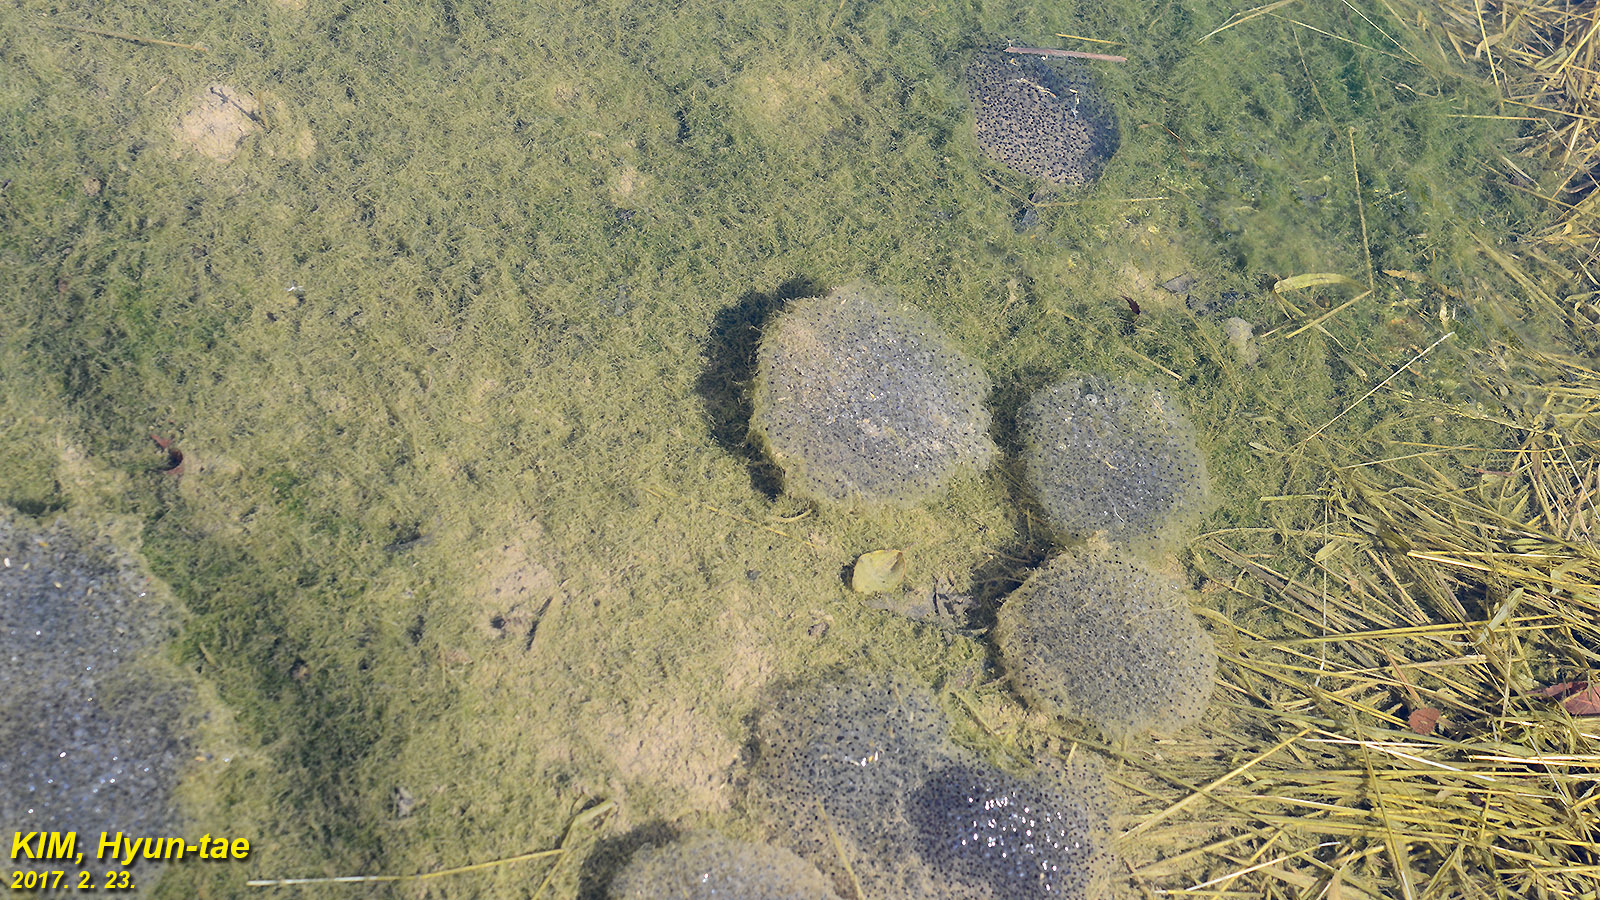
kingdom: Animalia
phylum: Chordata
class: Amphibia
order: Anura
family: Ranidae
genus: Rana
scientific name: Rana uenoi
